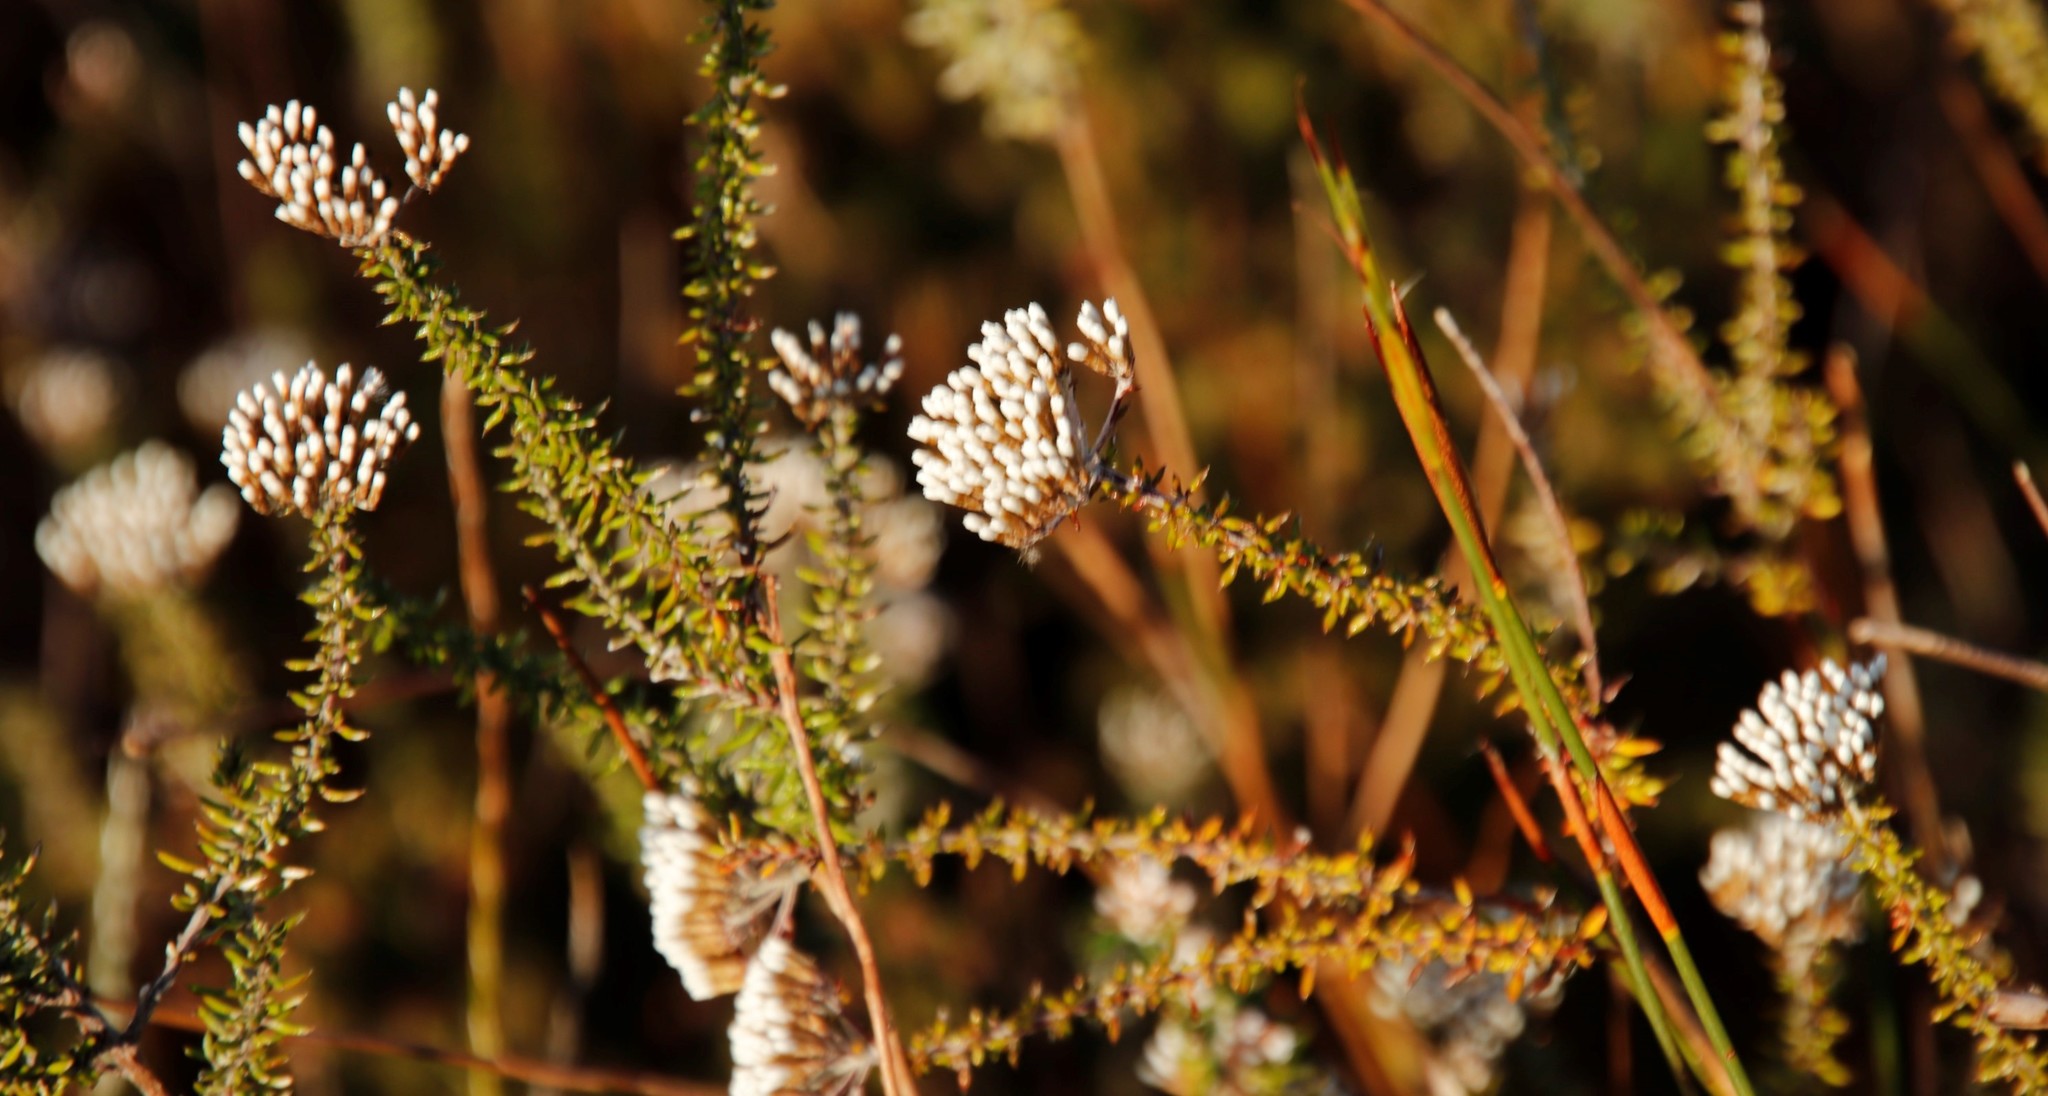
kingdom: Plantae
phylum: Tracheophyta
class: Magnoliopsida
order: Asterales
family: Asteraceae
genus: Metalasia
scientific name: Metalasia densa
